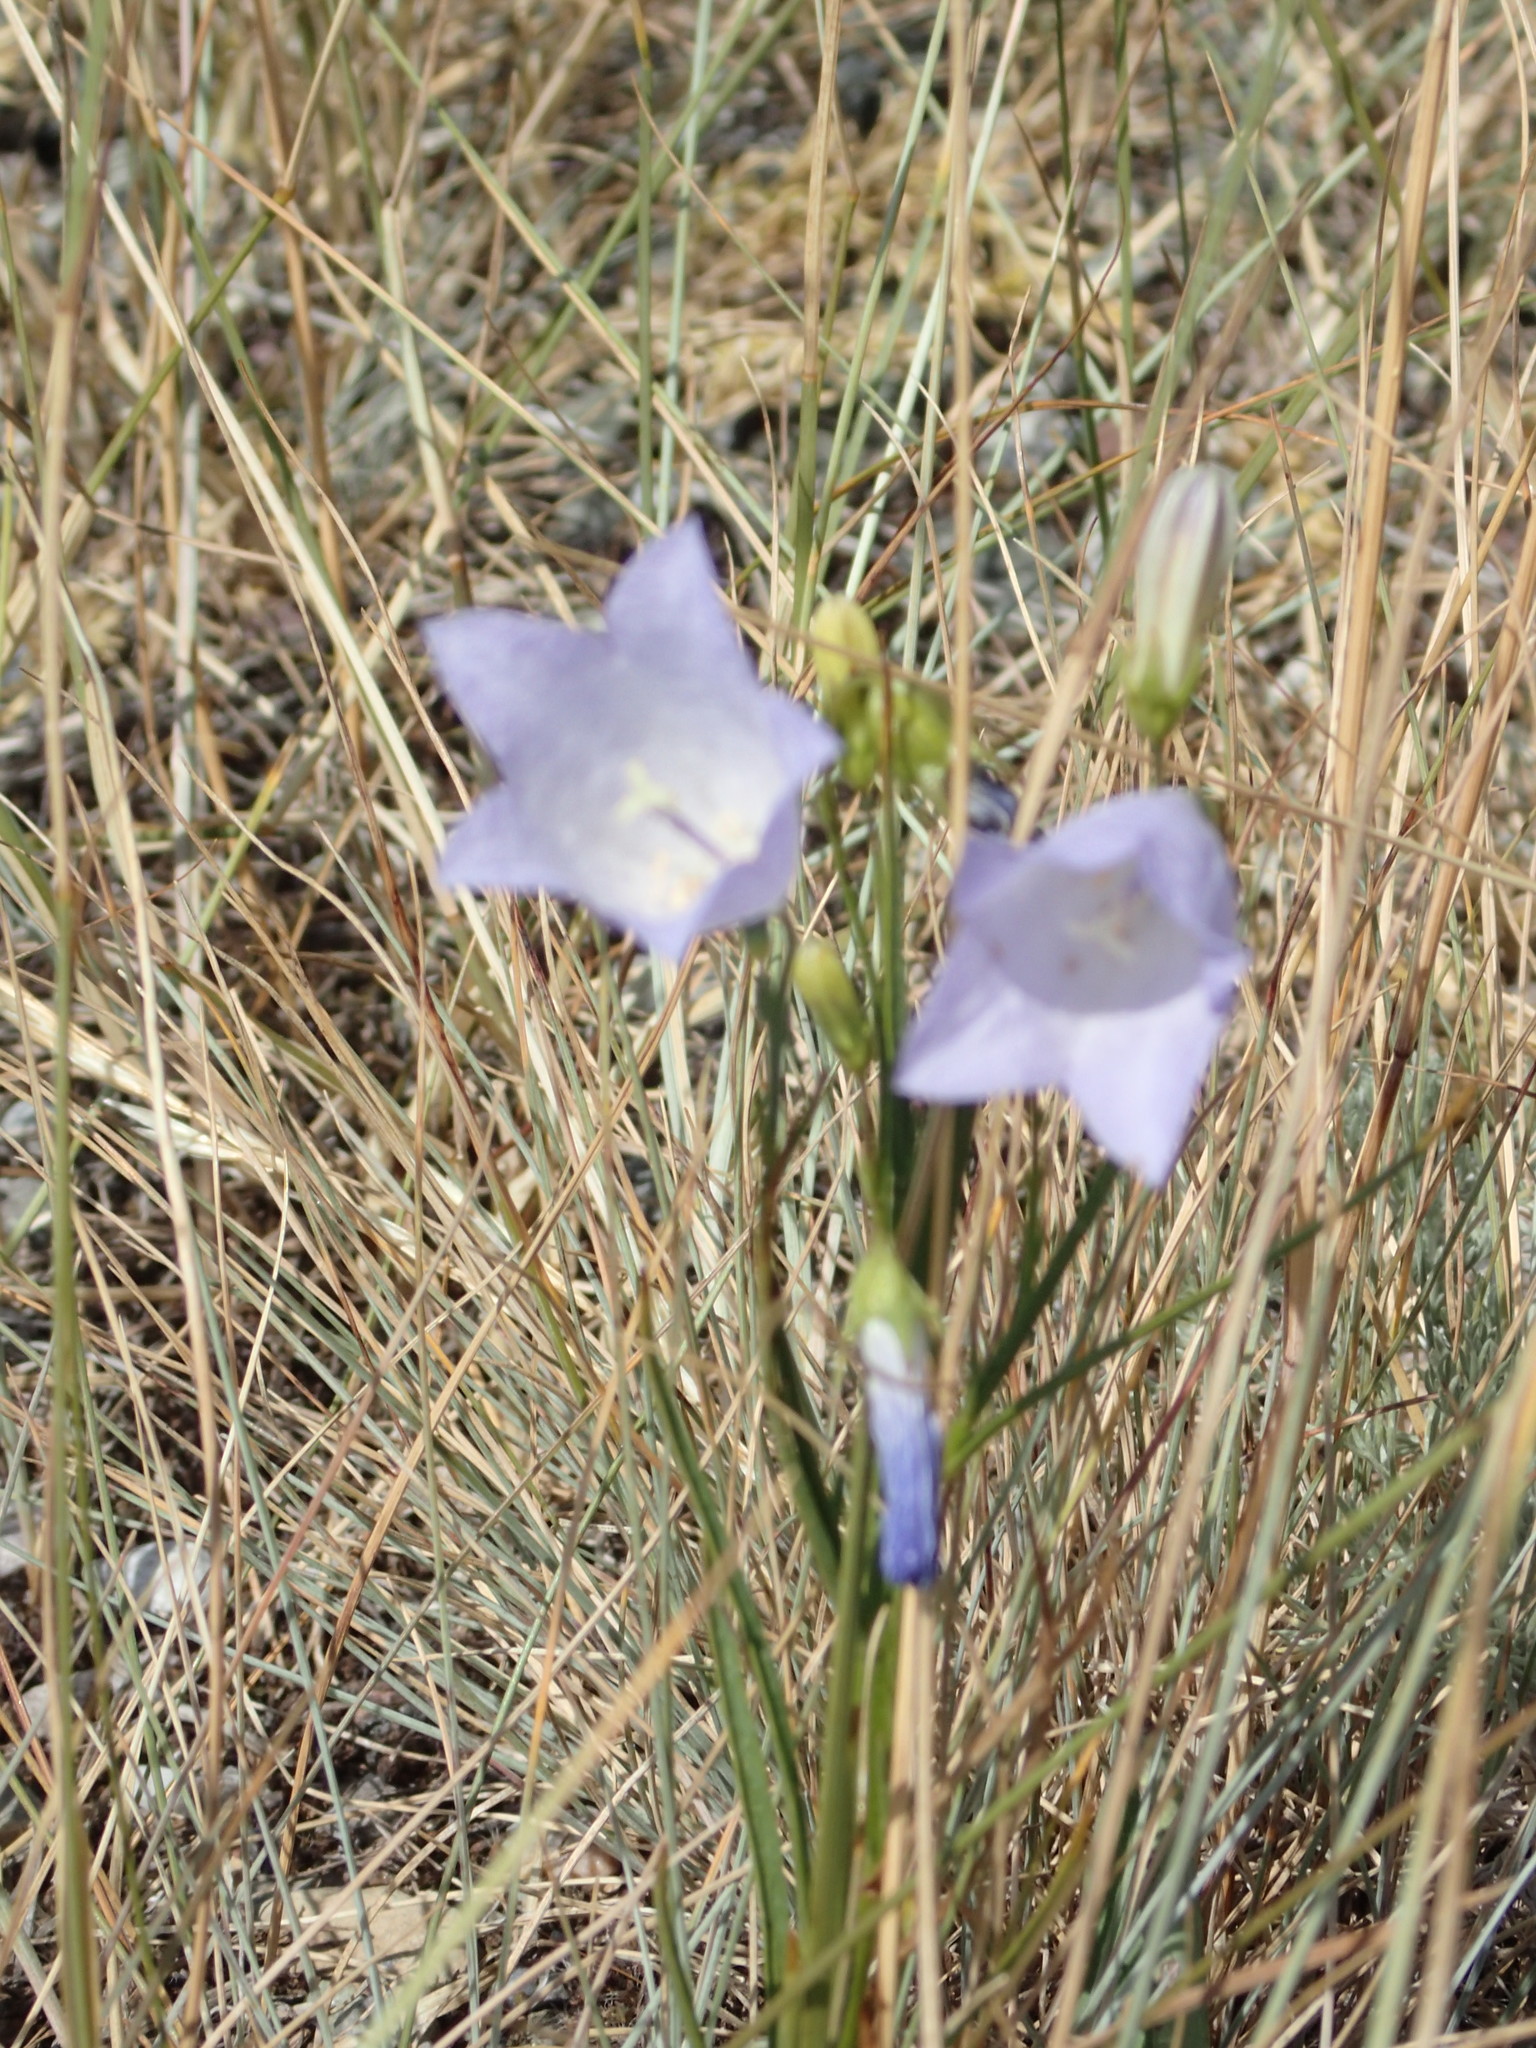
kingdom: Plantae
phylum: Tracheophyta
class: Magnoliopsida
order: Asterales
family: Campanulaceae
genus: Campanula
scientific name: Campanula alaskana
